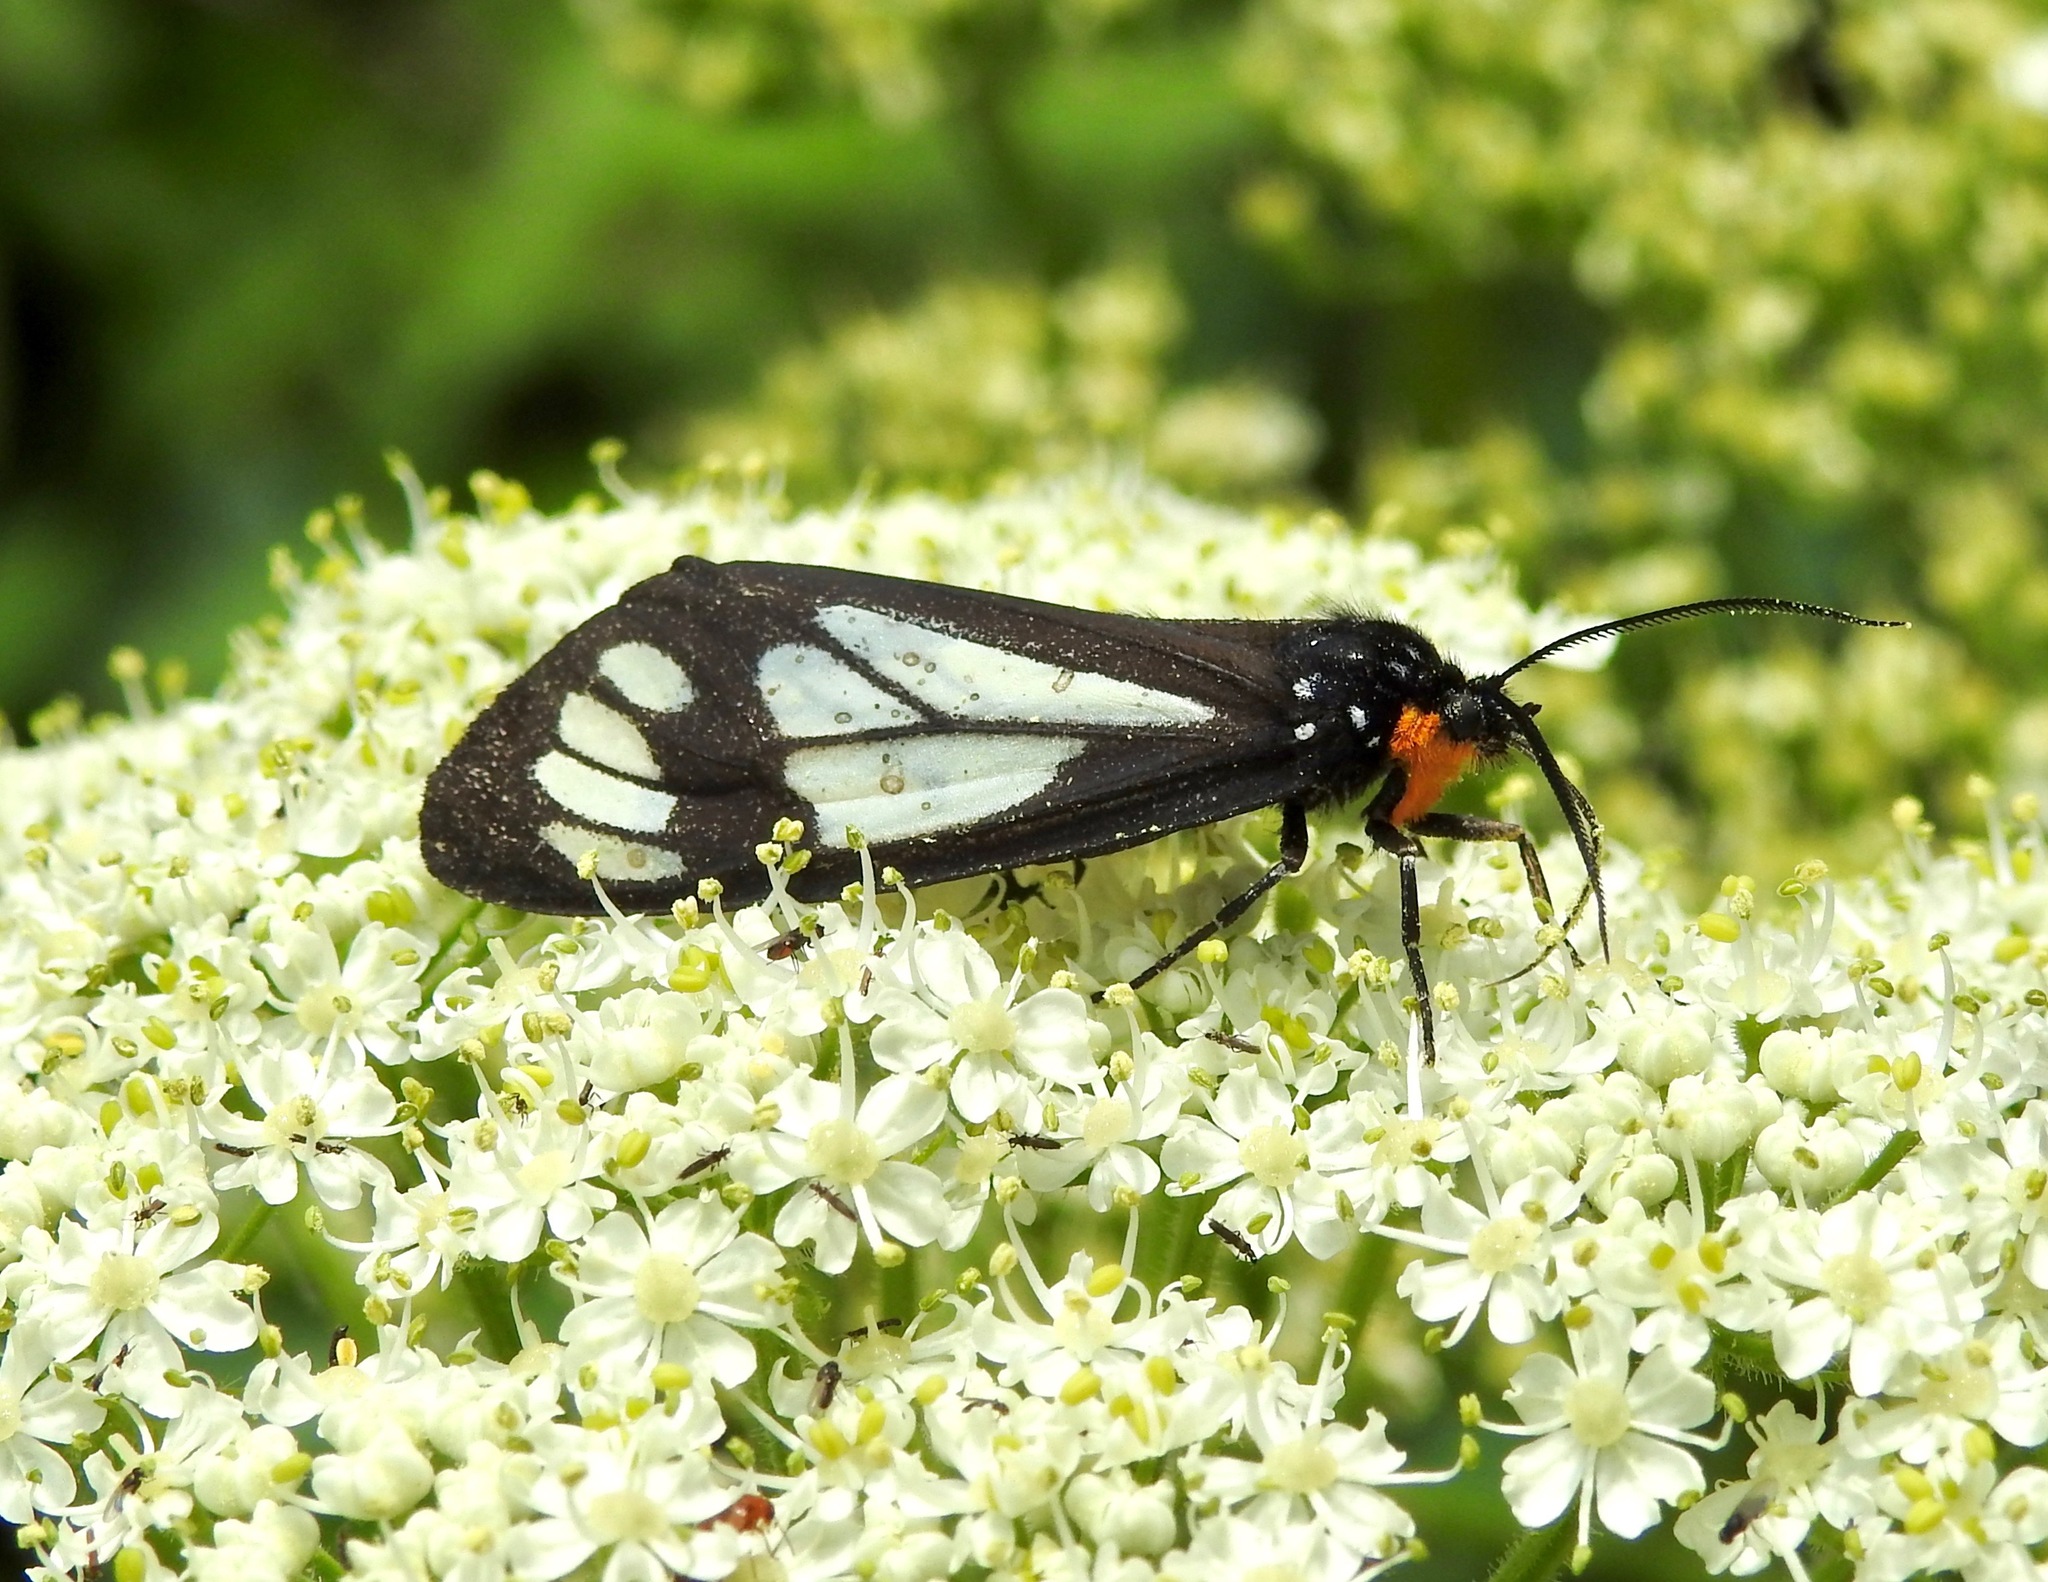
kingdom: Animalia
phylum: Arthropoda
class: Insecta
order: Lepidoptera
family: Erebidae
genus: Gnophaela
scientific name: Gnophaela vermiculata
